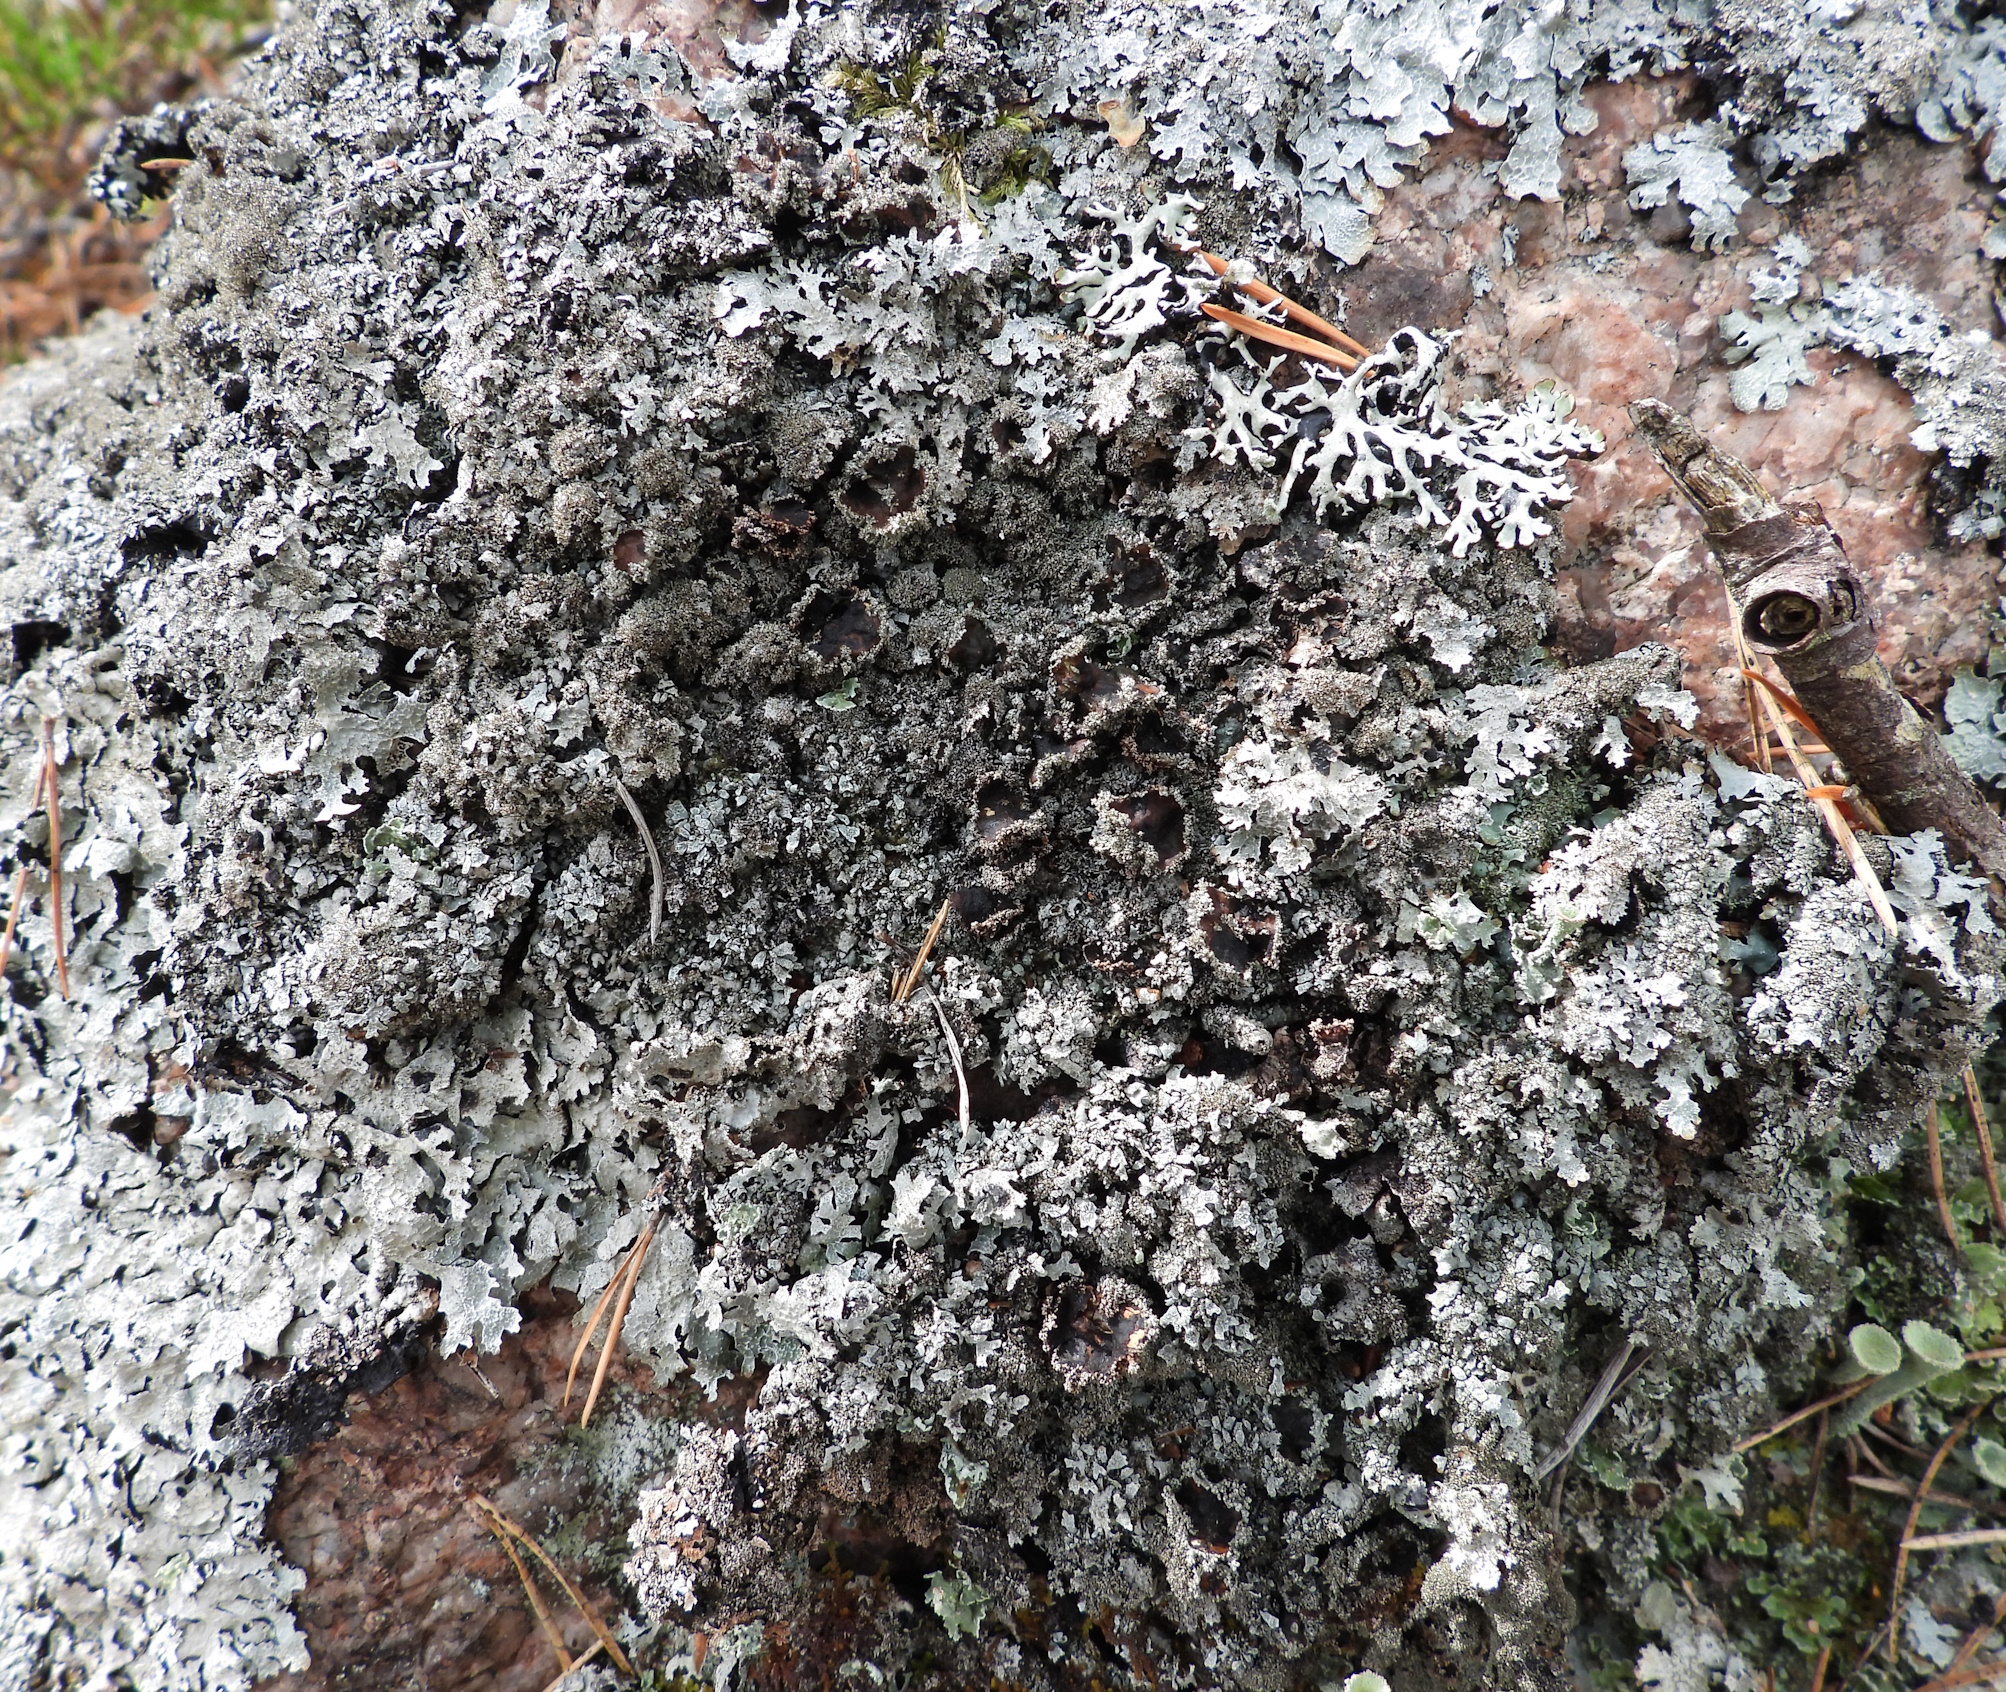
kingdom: Fungi
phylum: Ascomycota
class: Lecanoromycetes
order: Lecanorales
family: Parmeliaceae
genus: Parmelia
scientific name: Parmelia saxatilis
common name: Salted shield lichen
